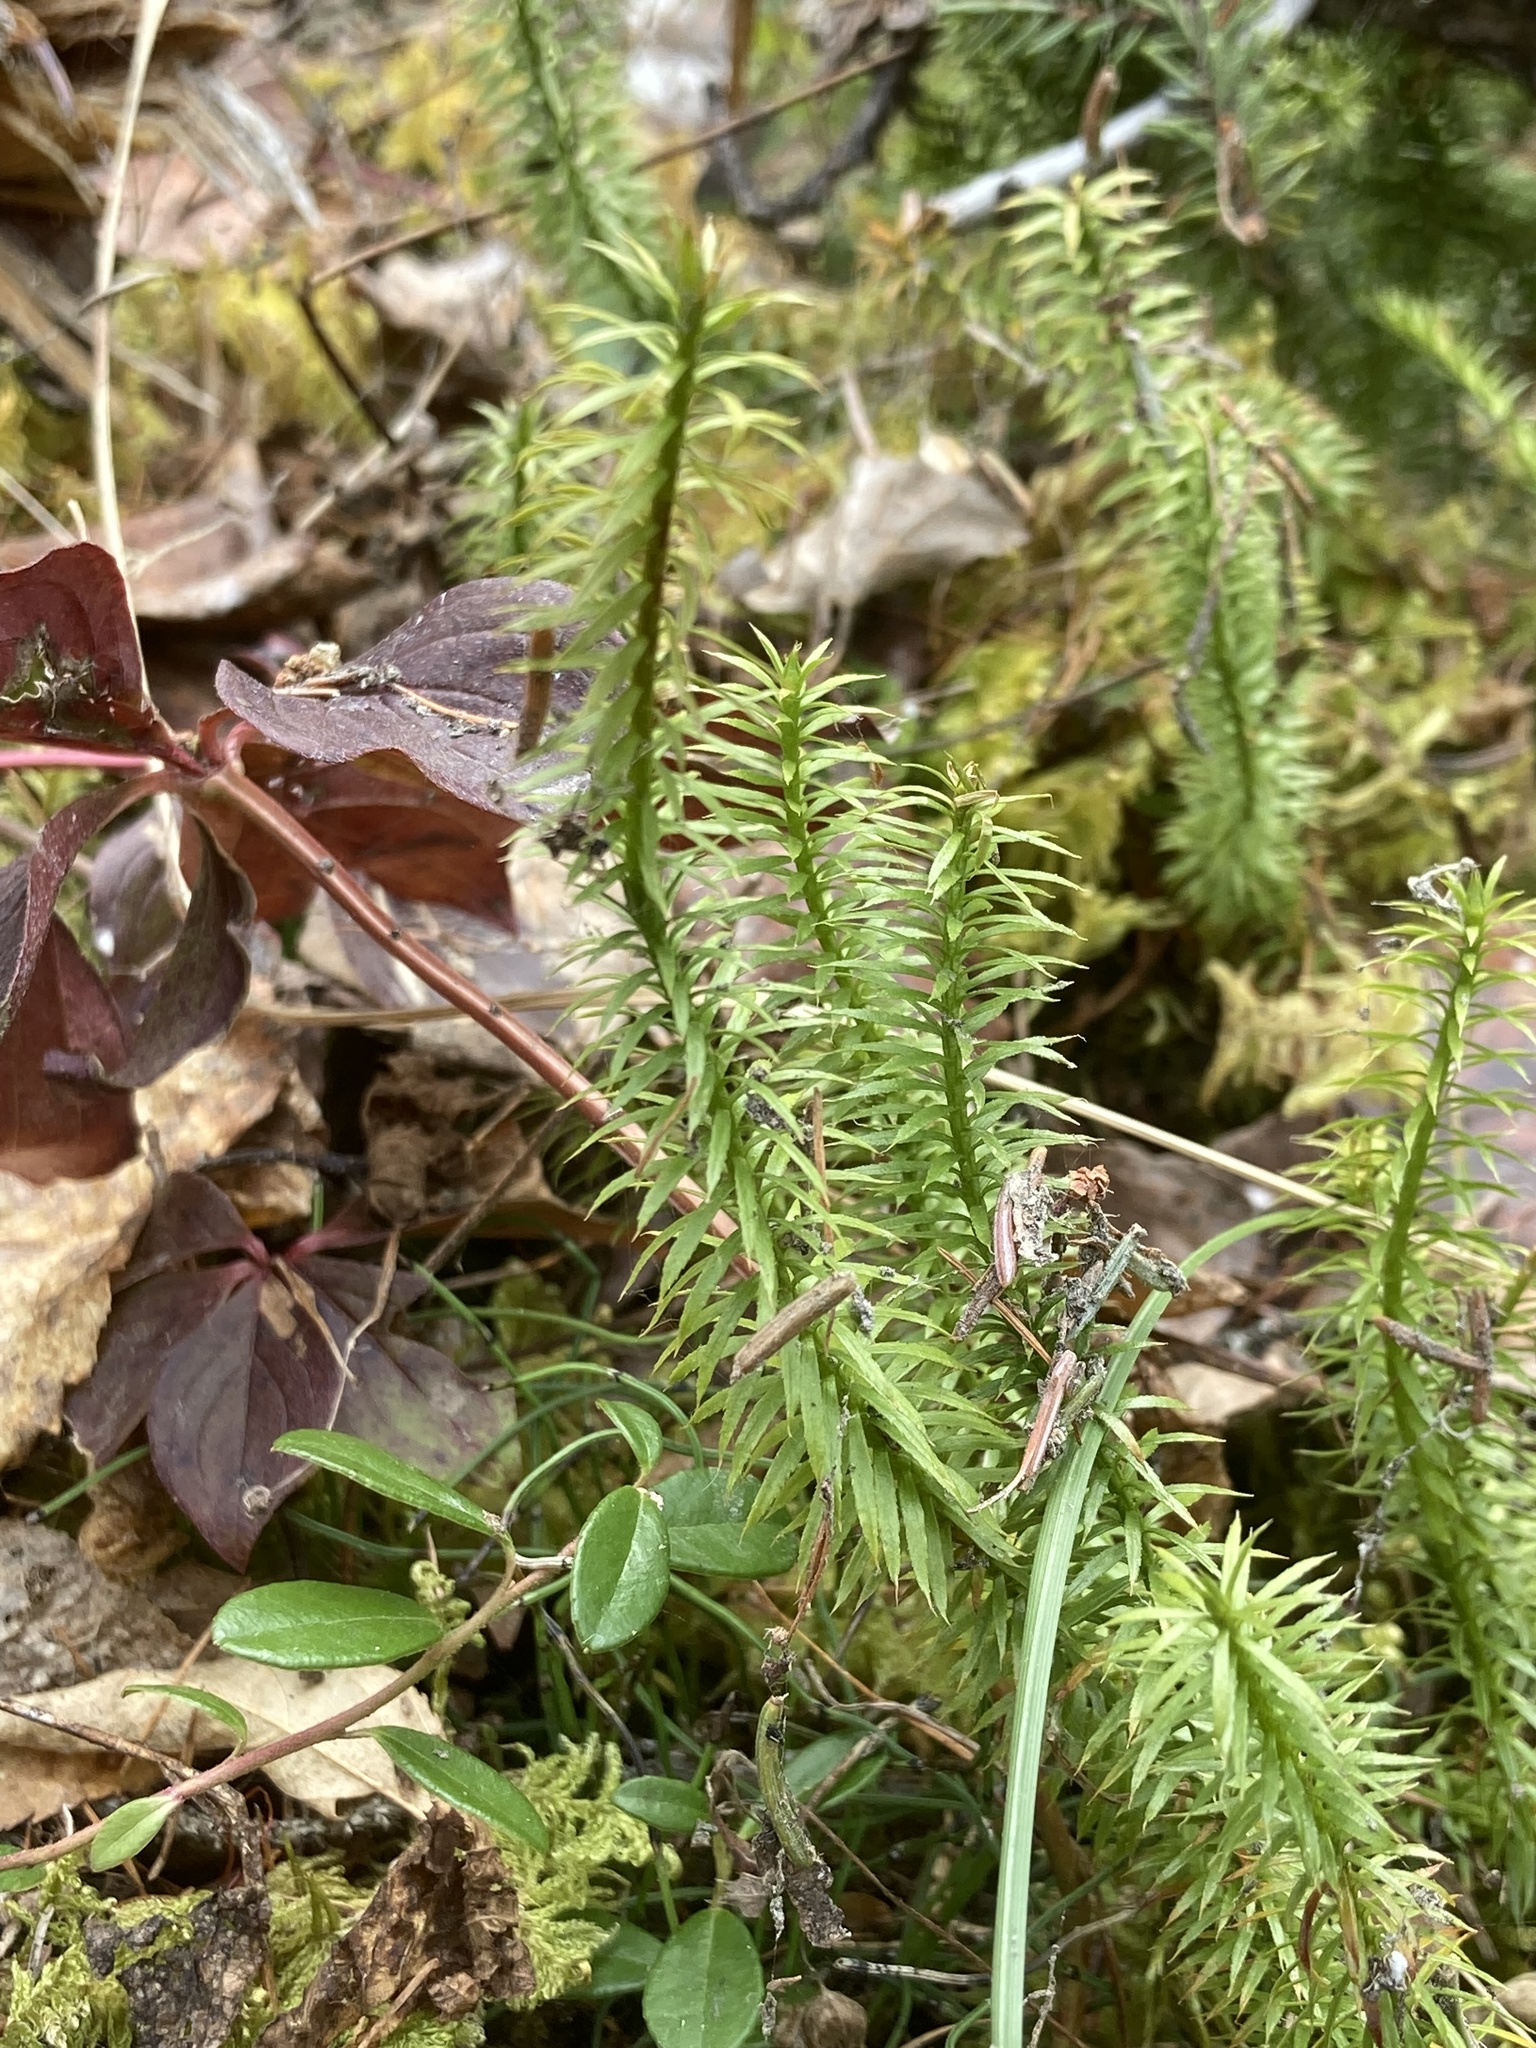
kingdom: Plantae
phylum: Tracheophyta
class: Lycopodiopsida
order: Lycopodiales
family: Lycopodiaceae
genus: Spinulum
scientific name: Spinulum annotinum
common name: Interrupted club-moss
